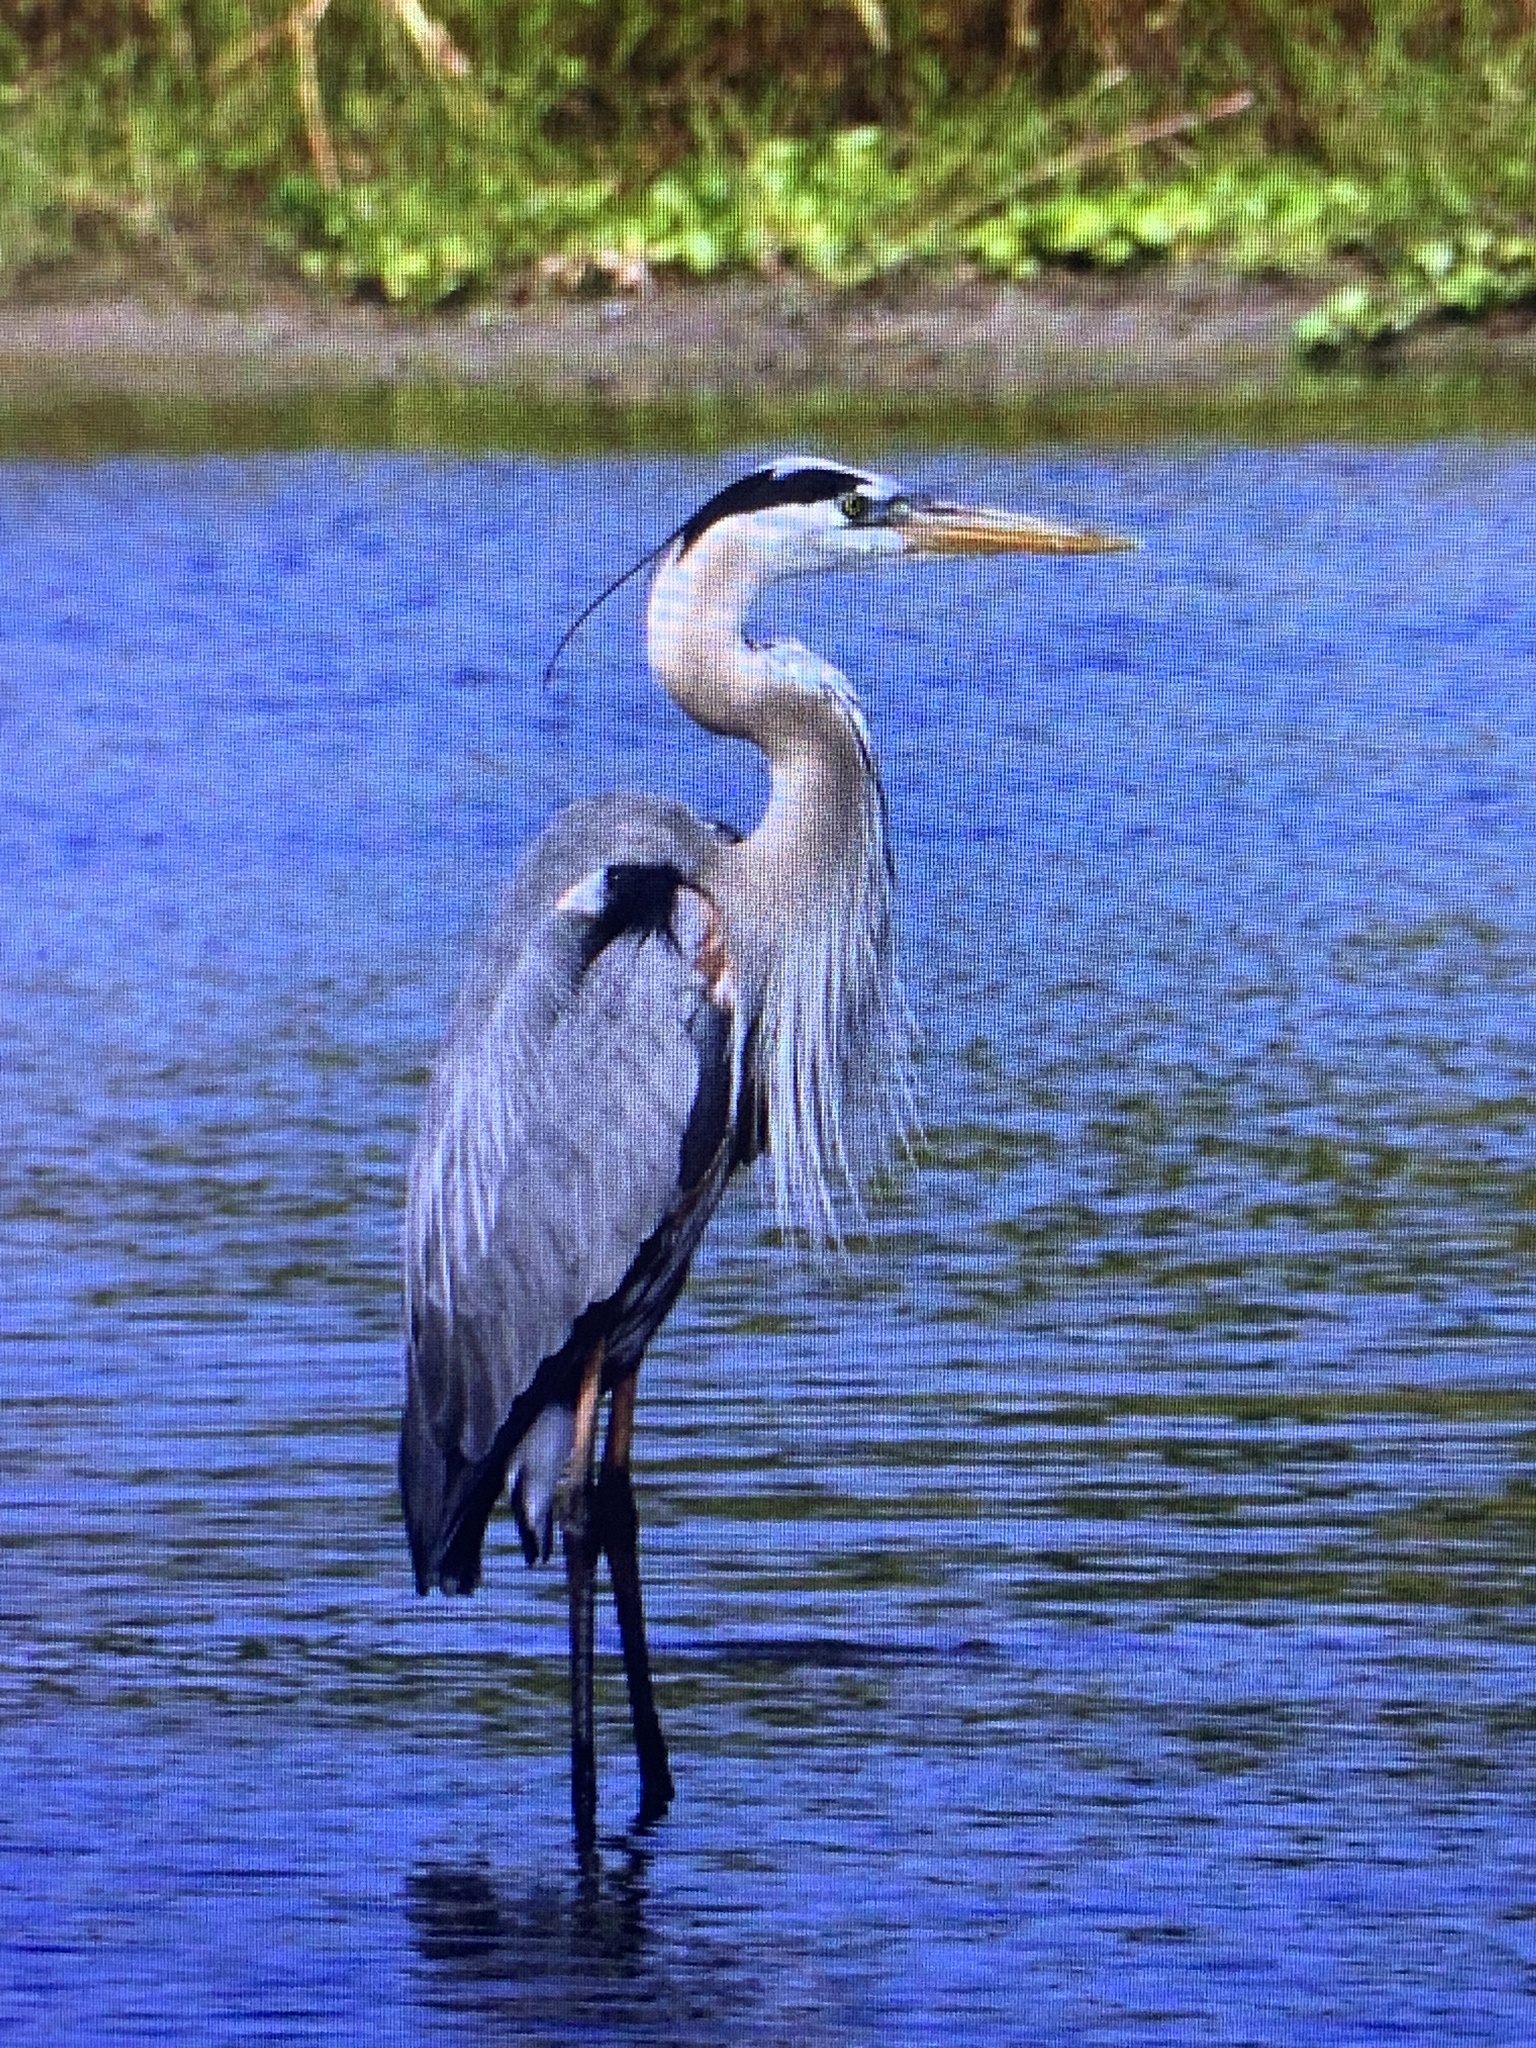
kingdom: Animalia
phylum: Chordata
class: Aves
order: Pelecaniformes
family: Ardeidae
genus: Ardea
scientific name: Ardea herodias
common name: Great blue heron
